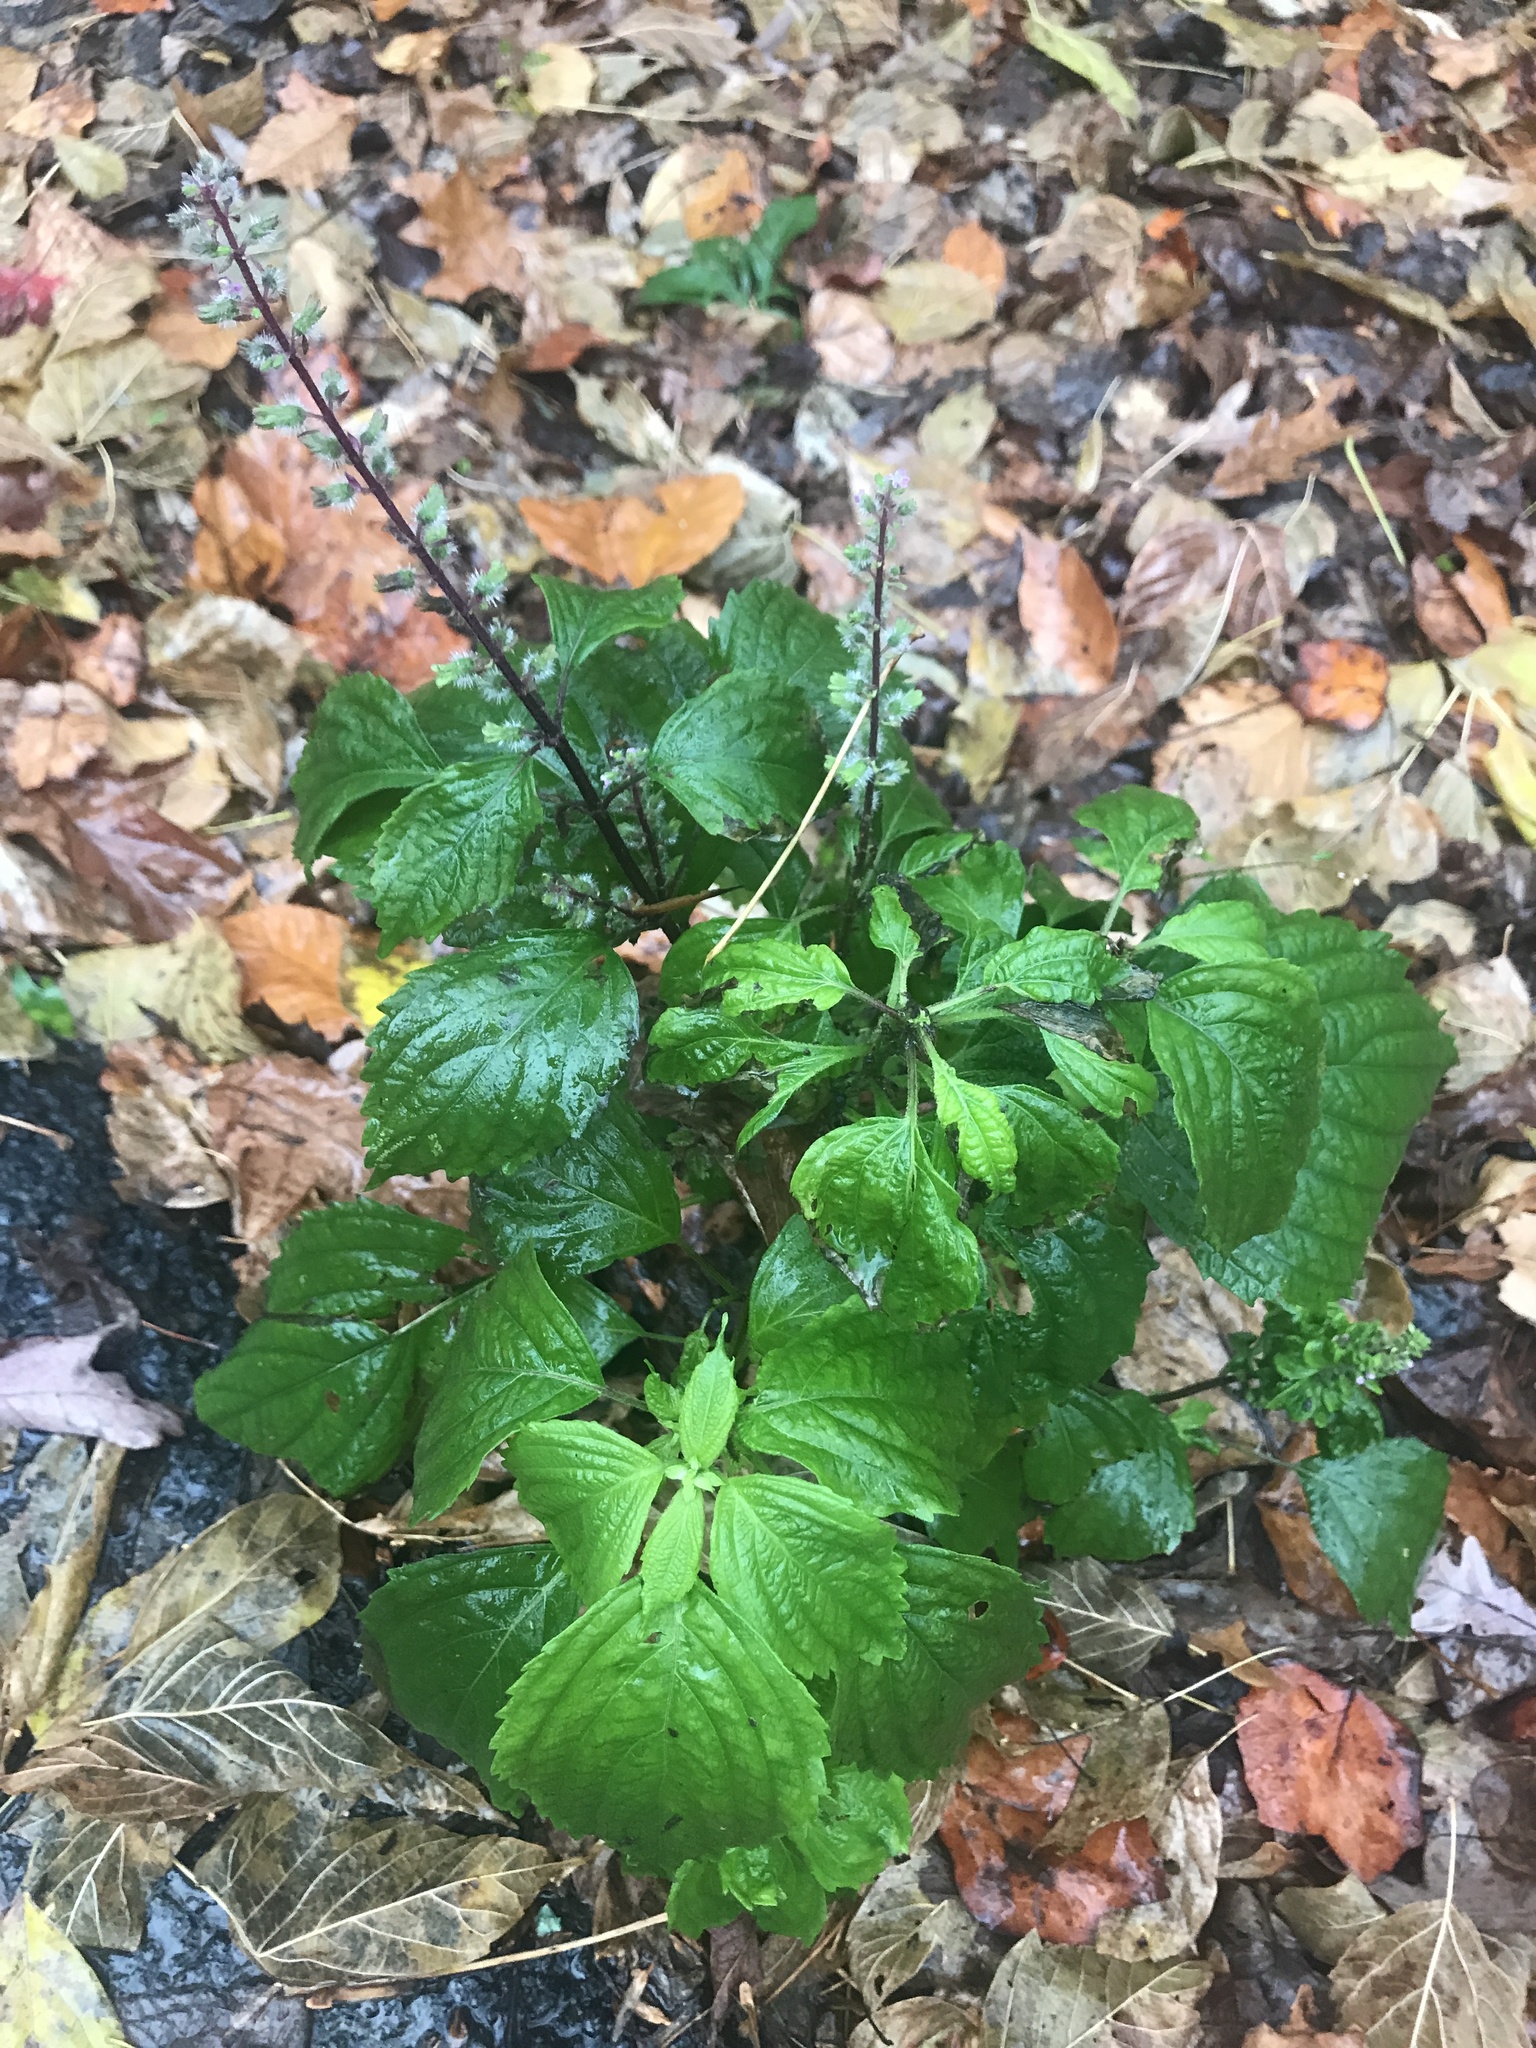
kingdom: Plantae
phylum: Tracheophyta
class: Magnoliopsida
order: Lamiales
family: Lamiaceae
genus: Perilla
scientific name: Perilla frutescens
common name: Perilla
